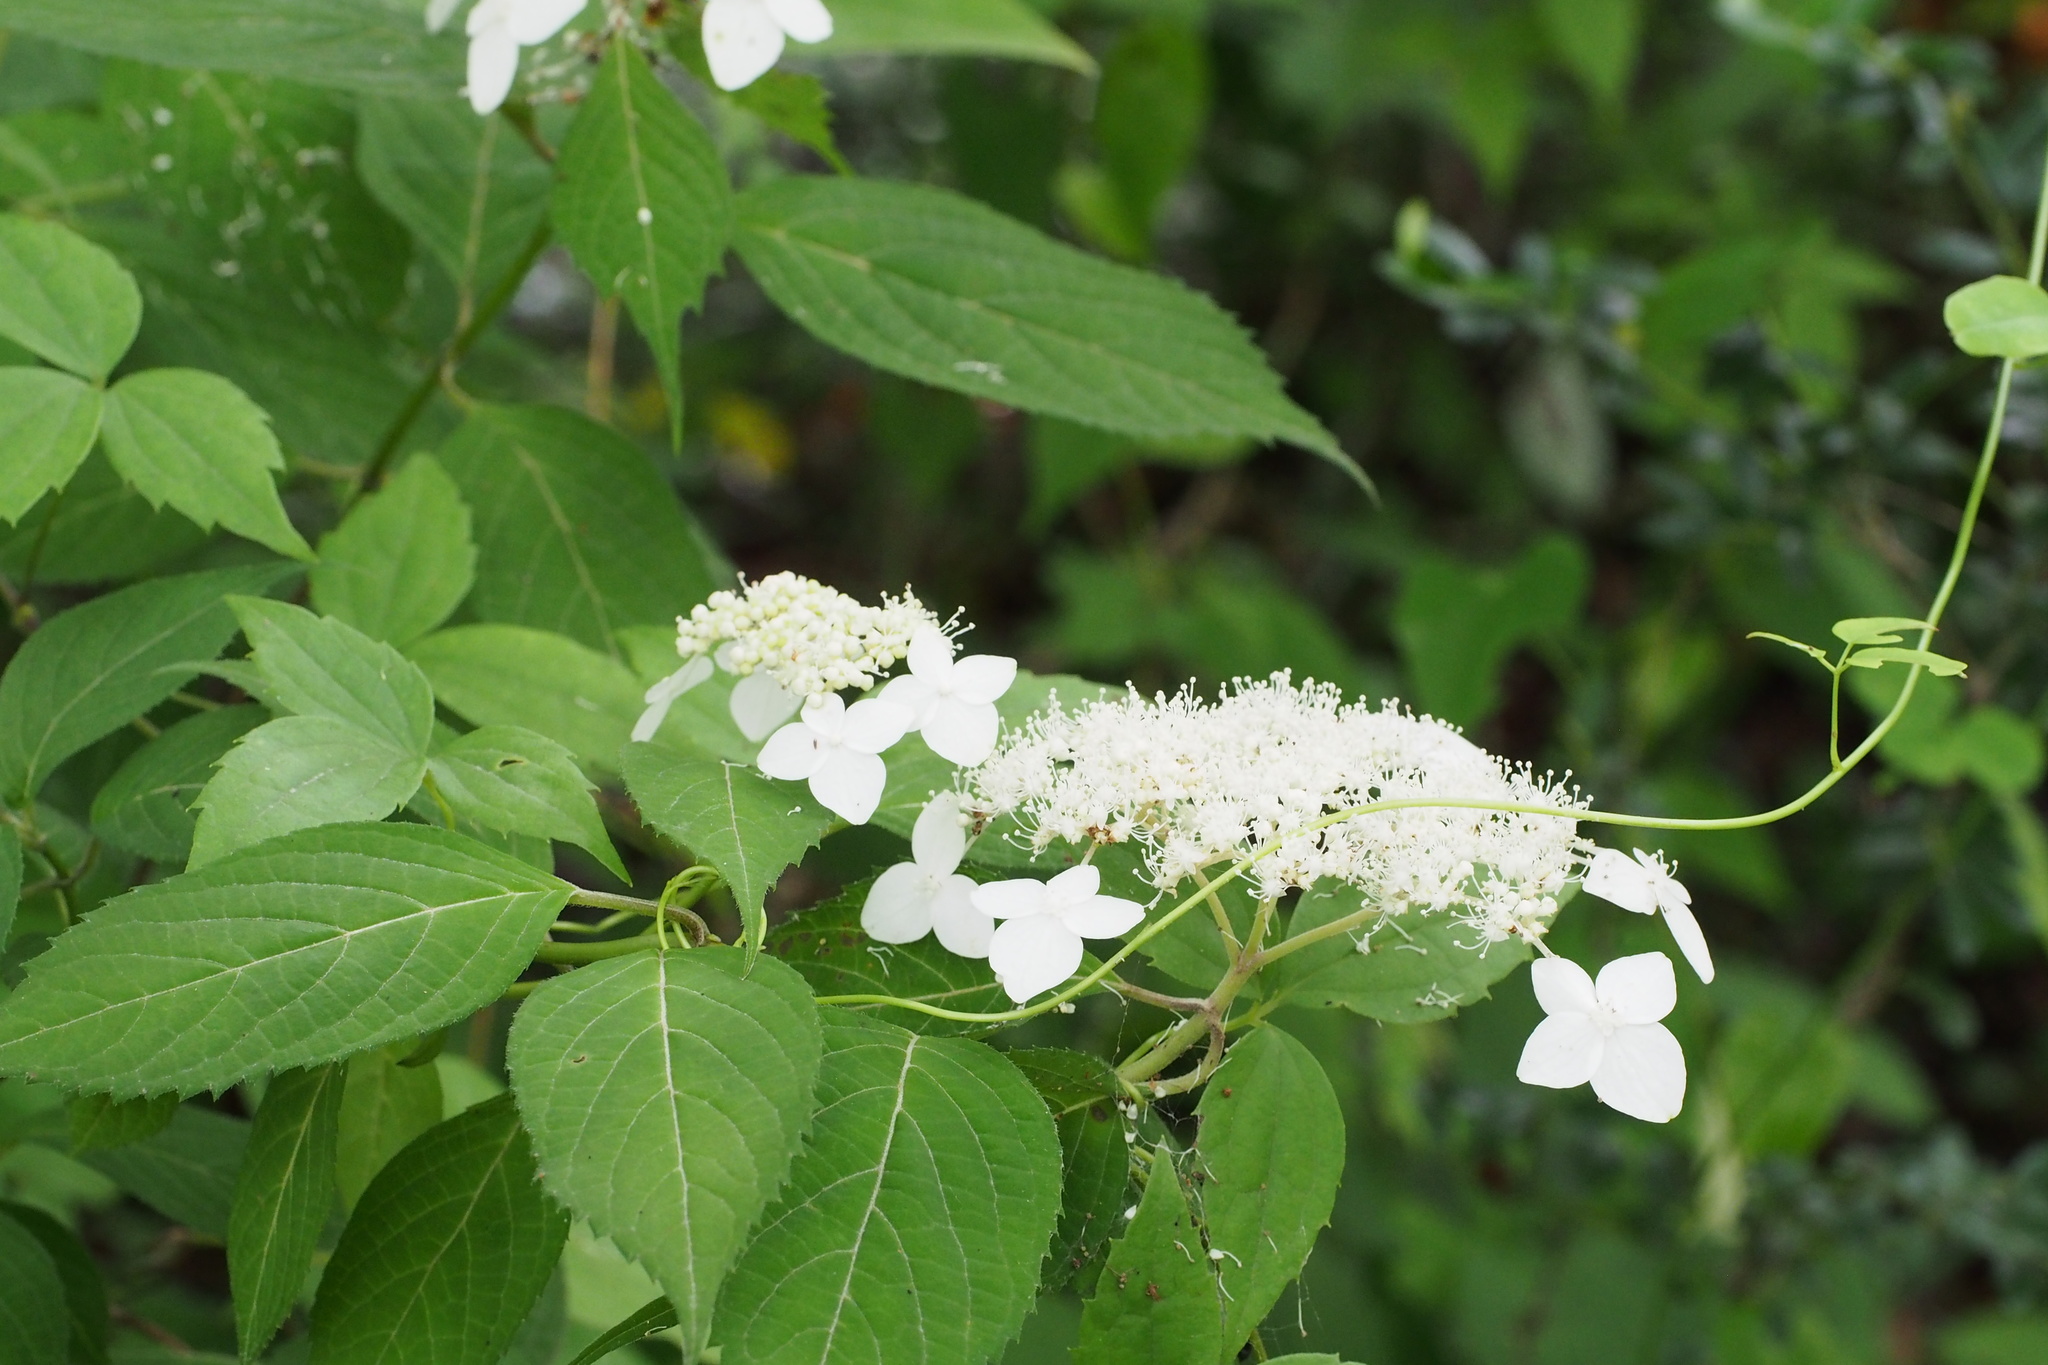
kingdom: Plantae
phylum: Tracheophyta
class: Magnoliopsida
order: Cornales
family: Hydrangeaceae
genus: Hydrangea
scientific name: Hydrangea serrata
